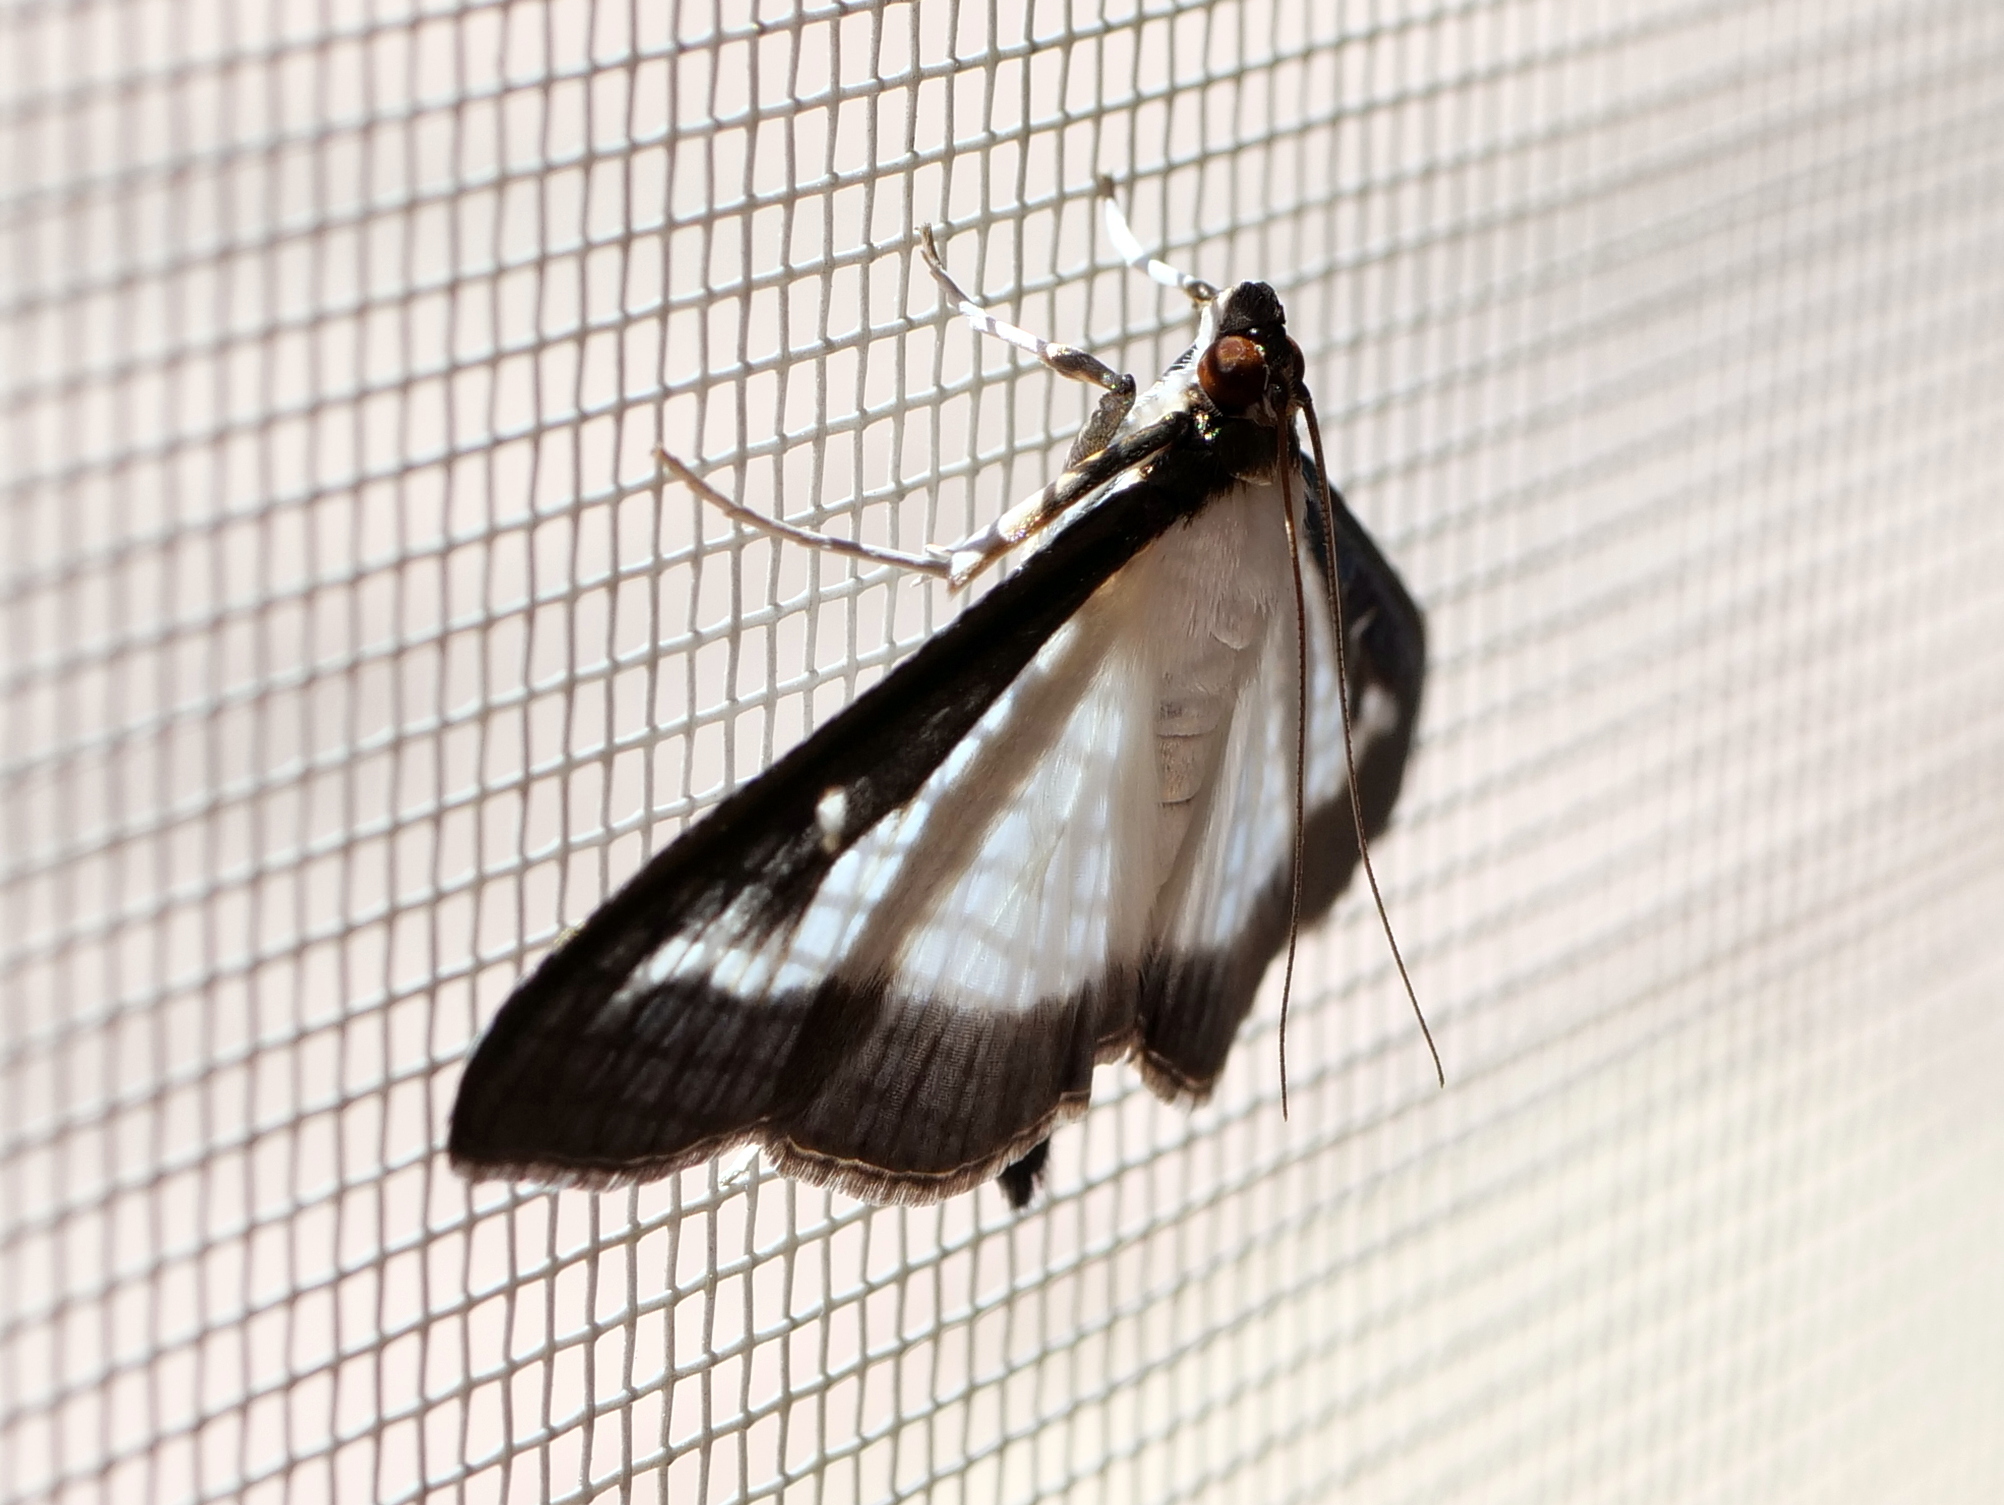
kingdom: Animalia
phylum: Arthropoda
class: Insecta
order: Lepidoptera
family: Crambidae
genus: Cydalima
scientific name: Cydalima perspectalis
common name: Box tree moth
